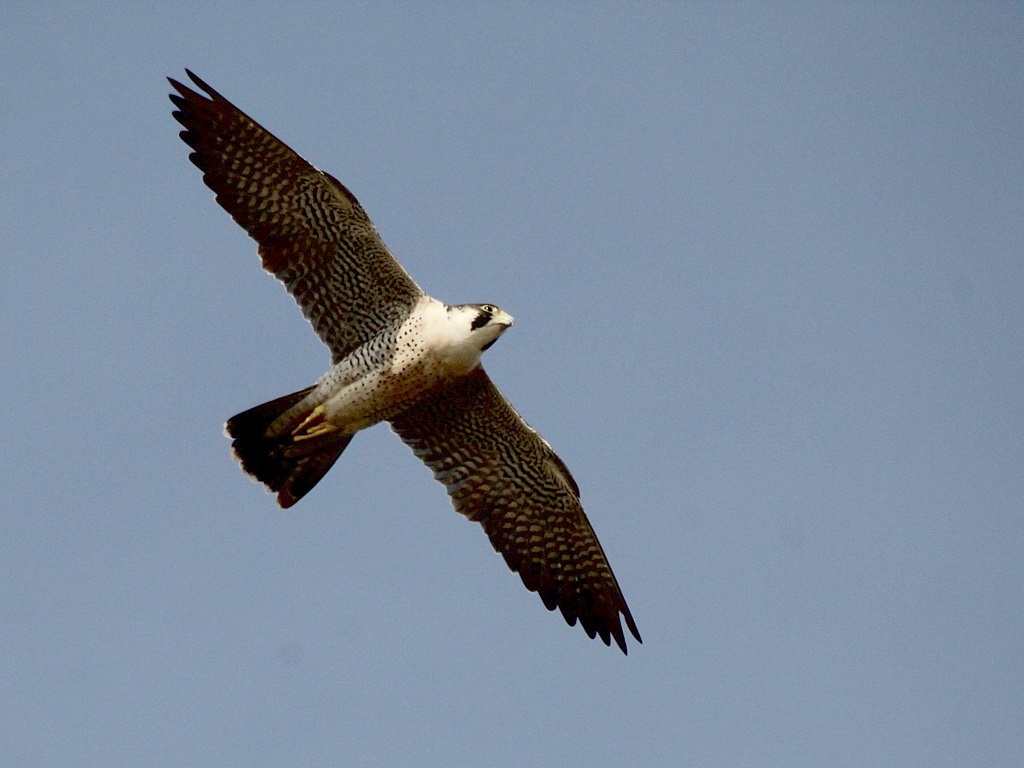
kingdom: Animalia
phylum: Chordata
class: Aves
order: Falconiformes
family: Falconidae
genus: Falco
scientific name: Falco peregrinus
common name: Peregrine falcon
